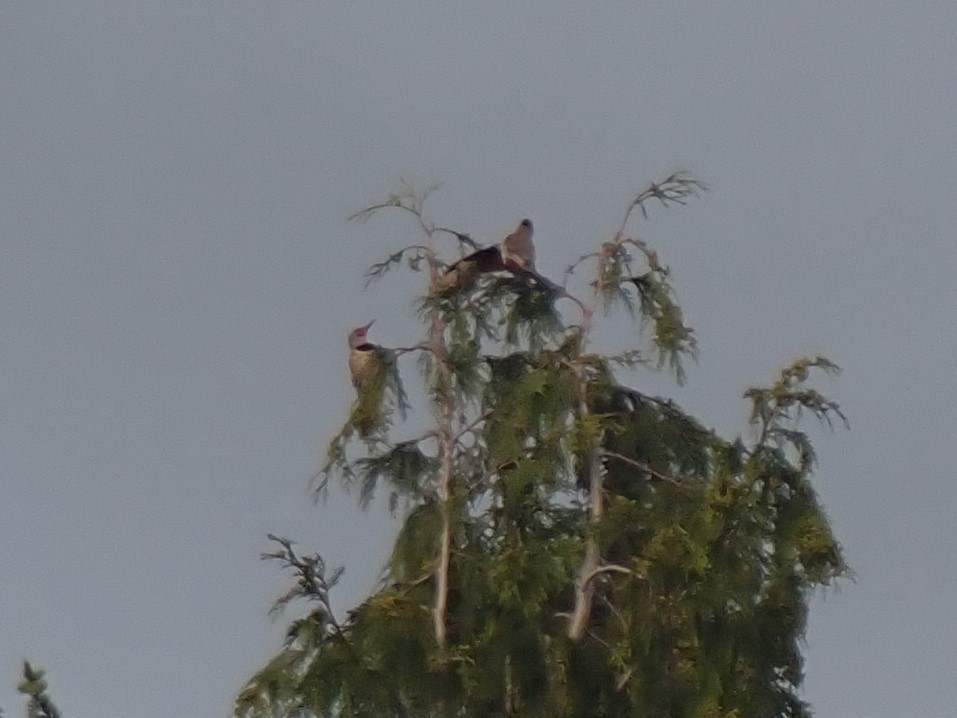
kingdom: Animalia
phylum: Chordata
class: Aves
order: Piciformes
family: Picidae
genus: Colaptes
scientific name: Colaptes auratus
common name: Northern flicker
